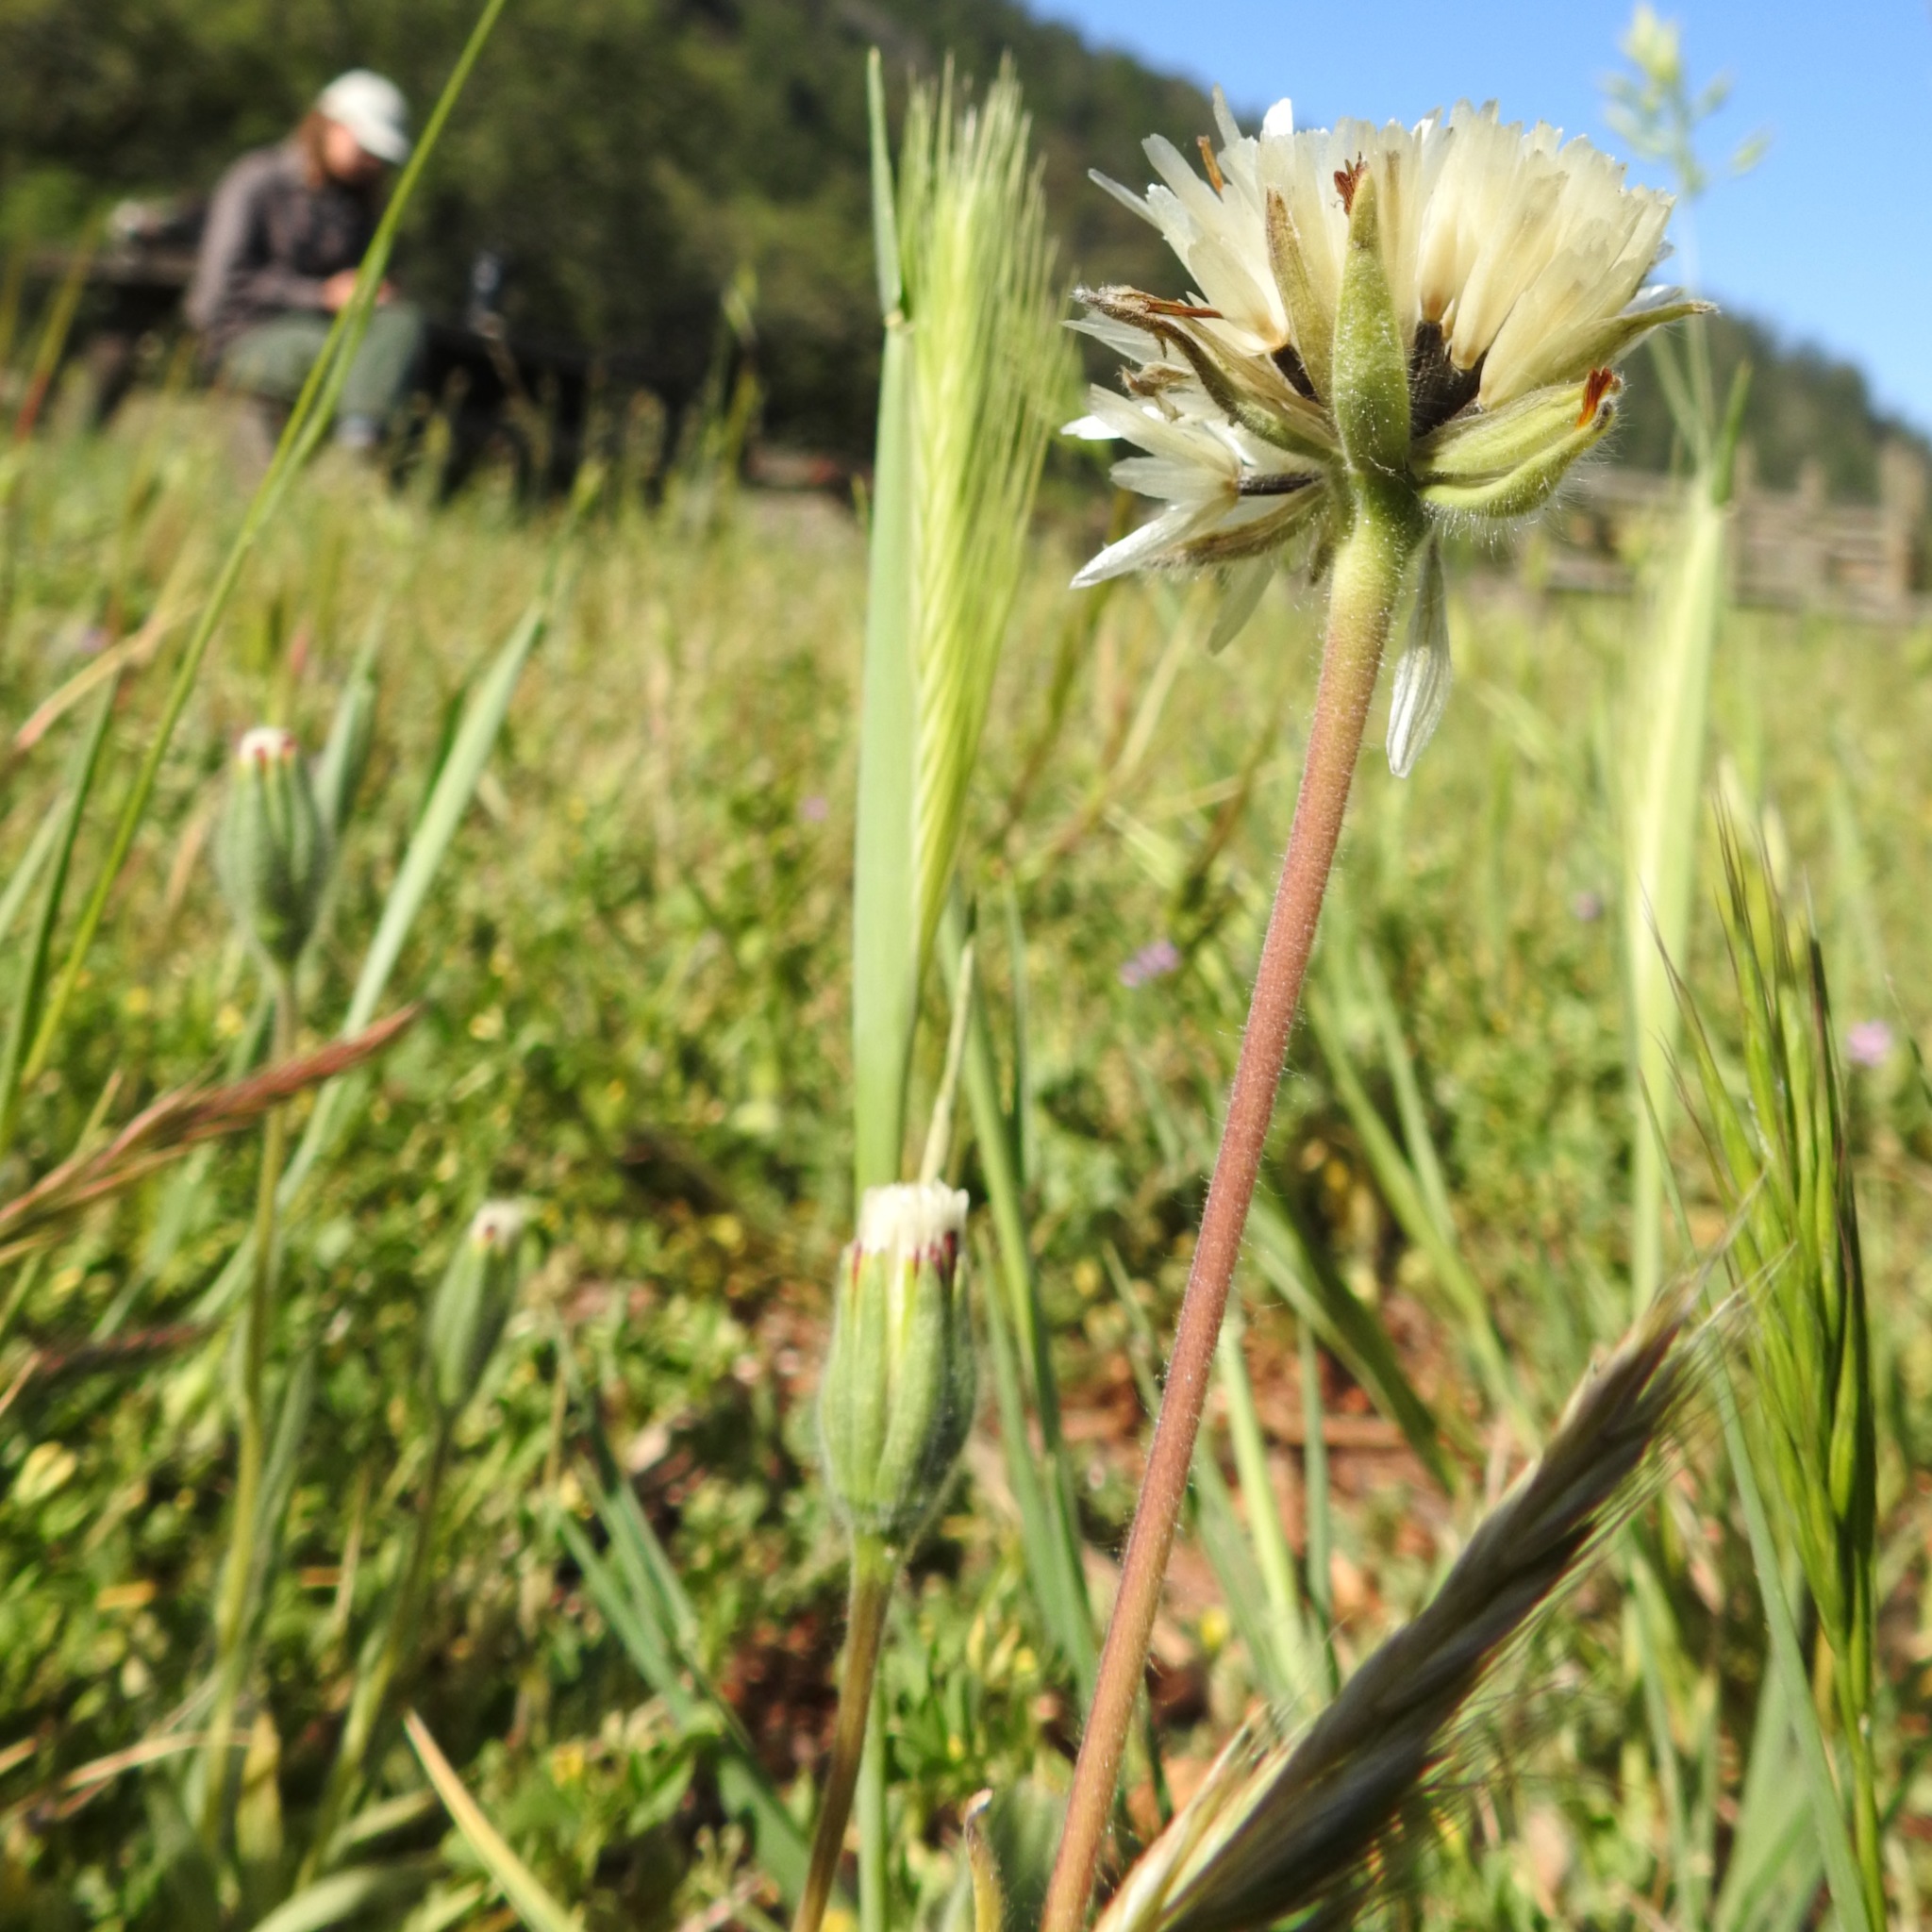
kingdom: Plantae
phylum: Tracheophyta
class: Magnoliopsida
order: Asterales
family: Asteraceae
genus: Achyrachaena
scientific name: Achyrachaena mollis
